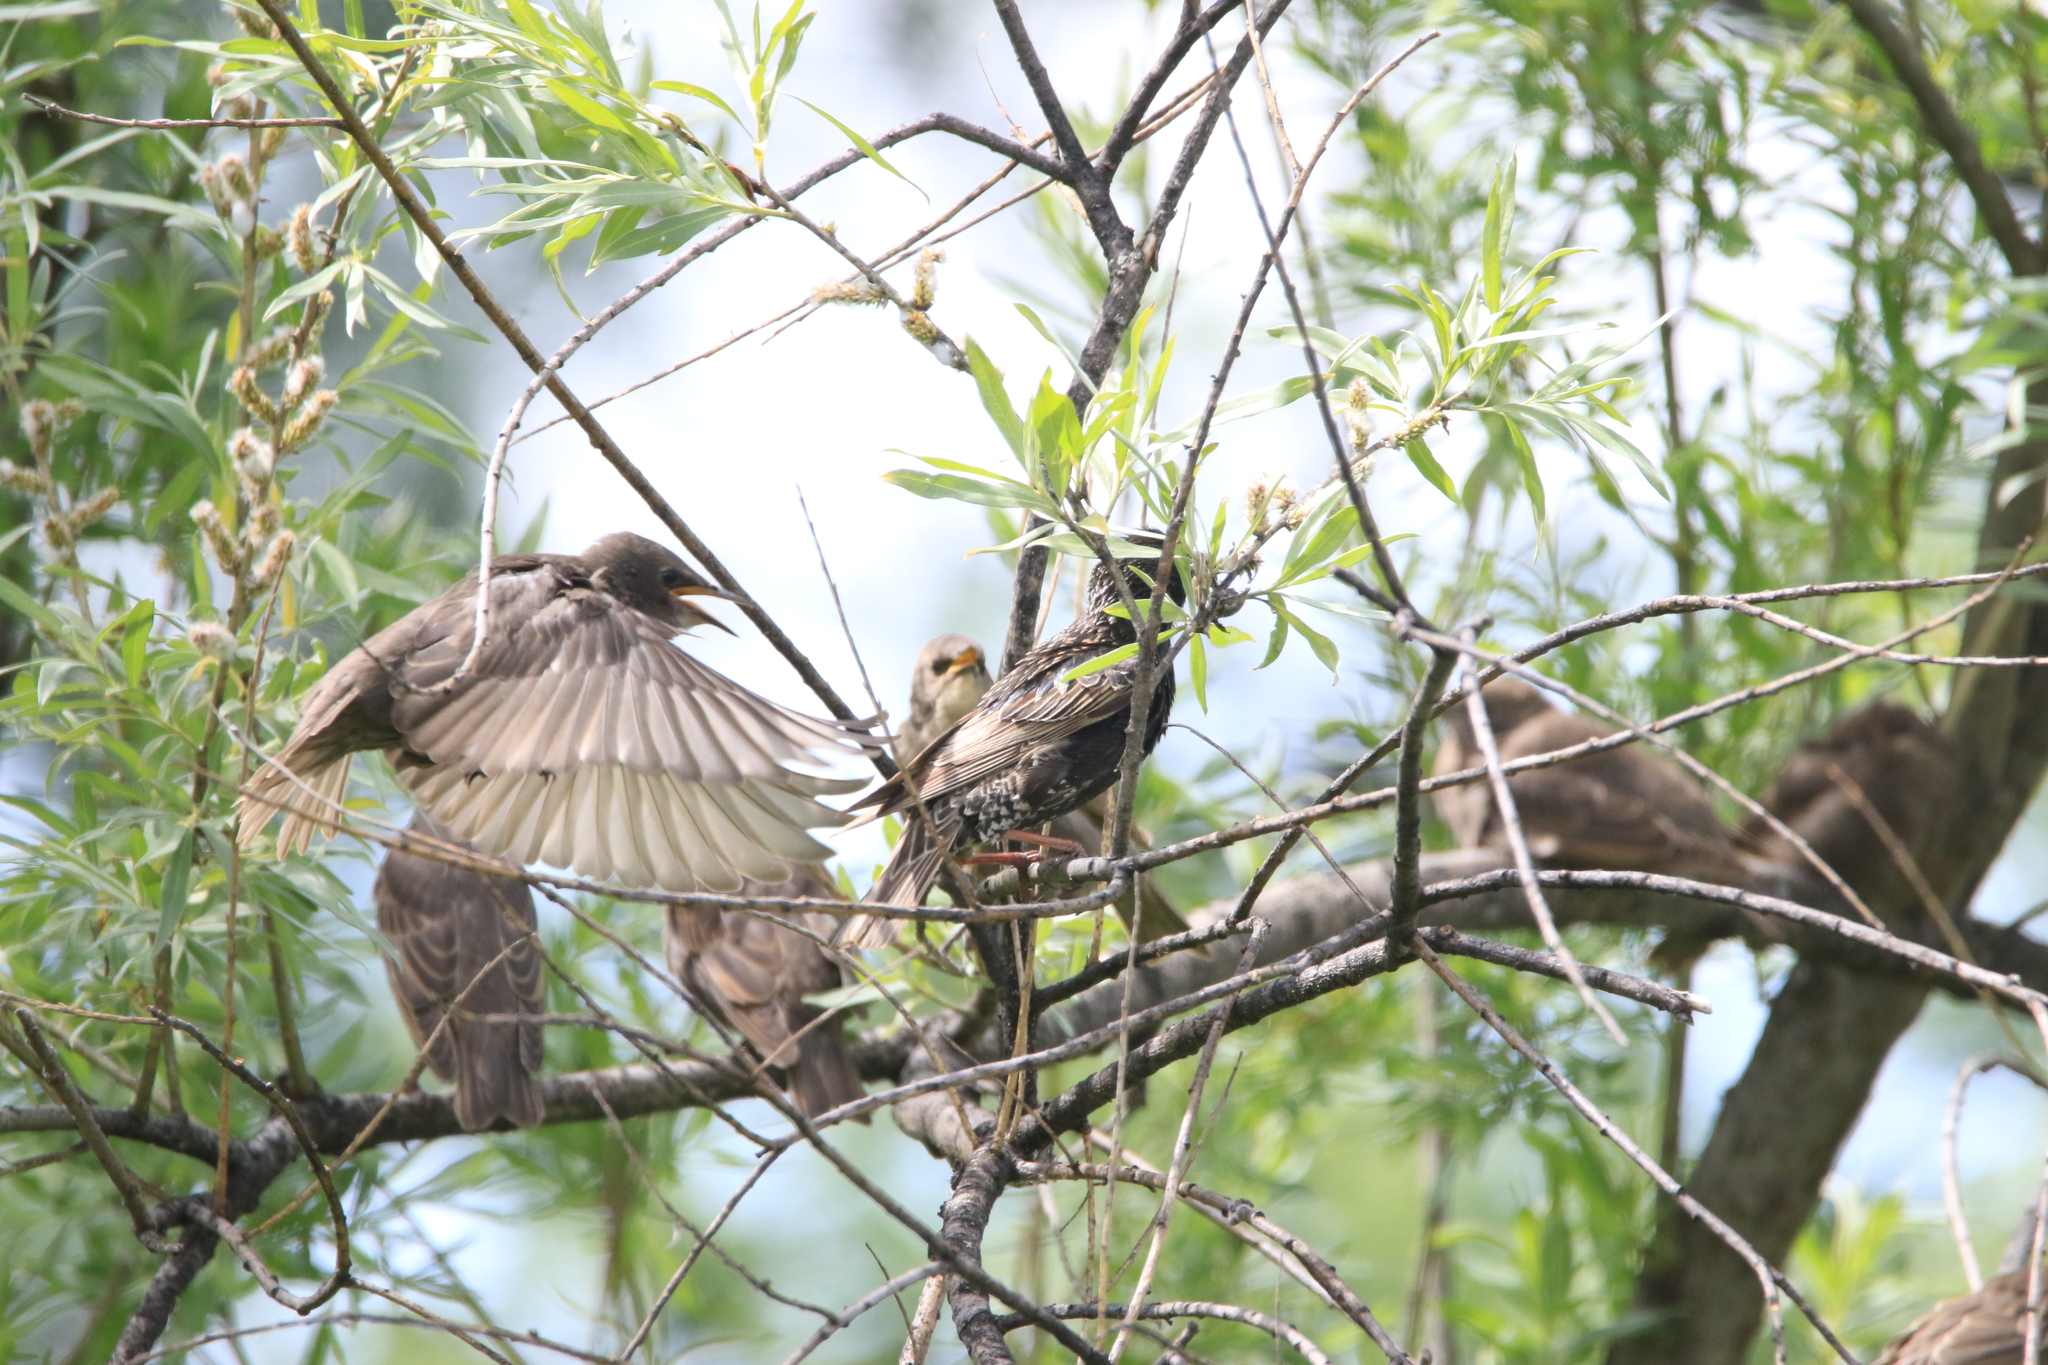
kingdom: Animalia
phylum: Chordata
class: Aves
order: Passeriformes
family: Sturnidae
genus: Sturnus
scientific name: Sturnus vulgaris
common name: Common starling
